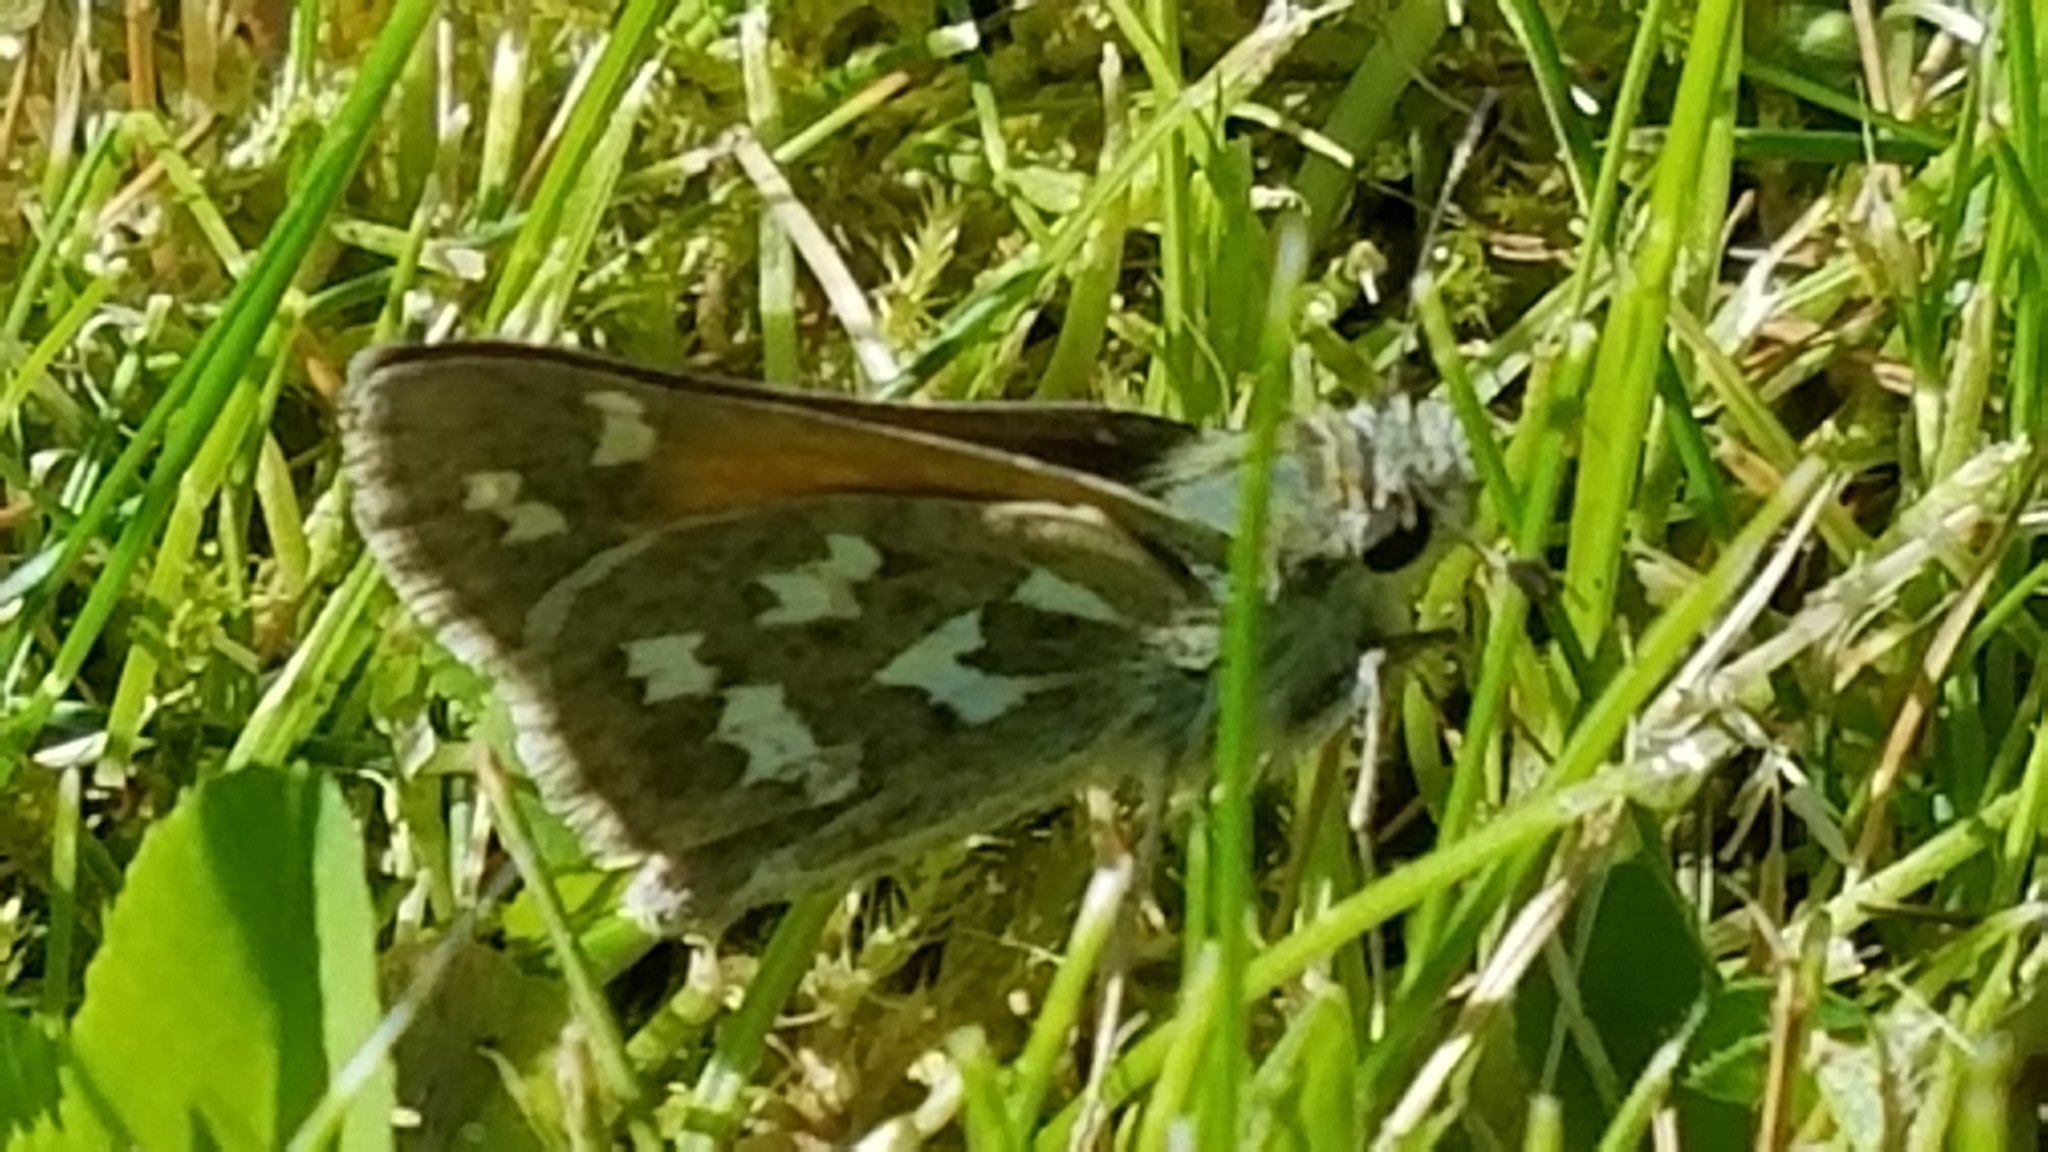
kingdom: Animalia
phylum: Arthropoda
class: Insecta
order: Lepidoptera
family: Hesperiidae
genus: Hesperia
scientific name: Hesperia juba
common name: Juba skipper
